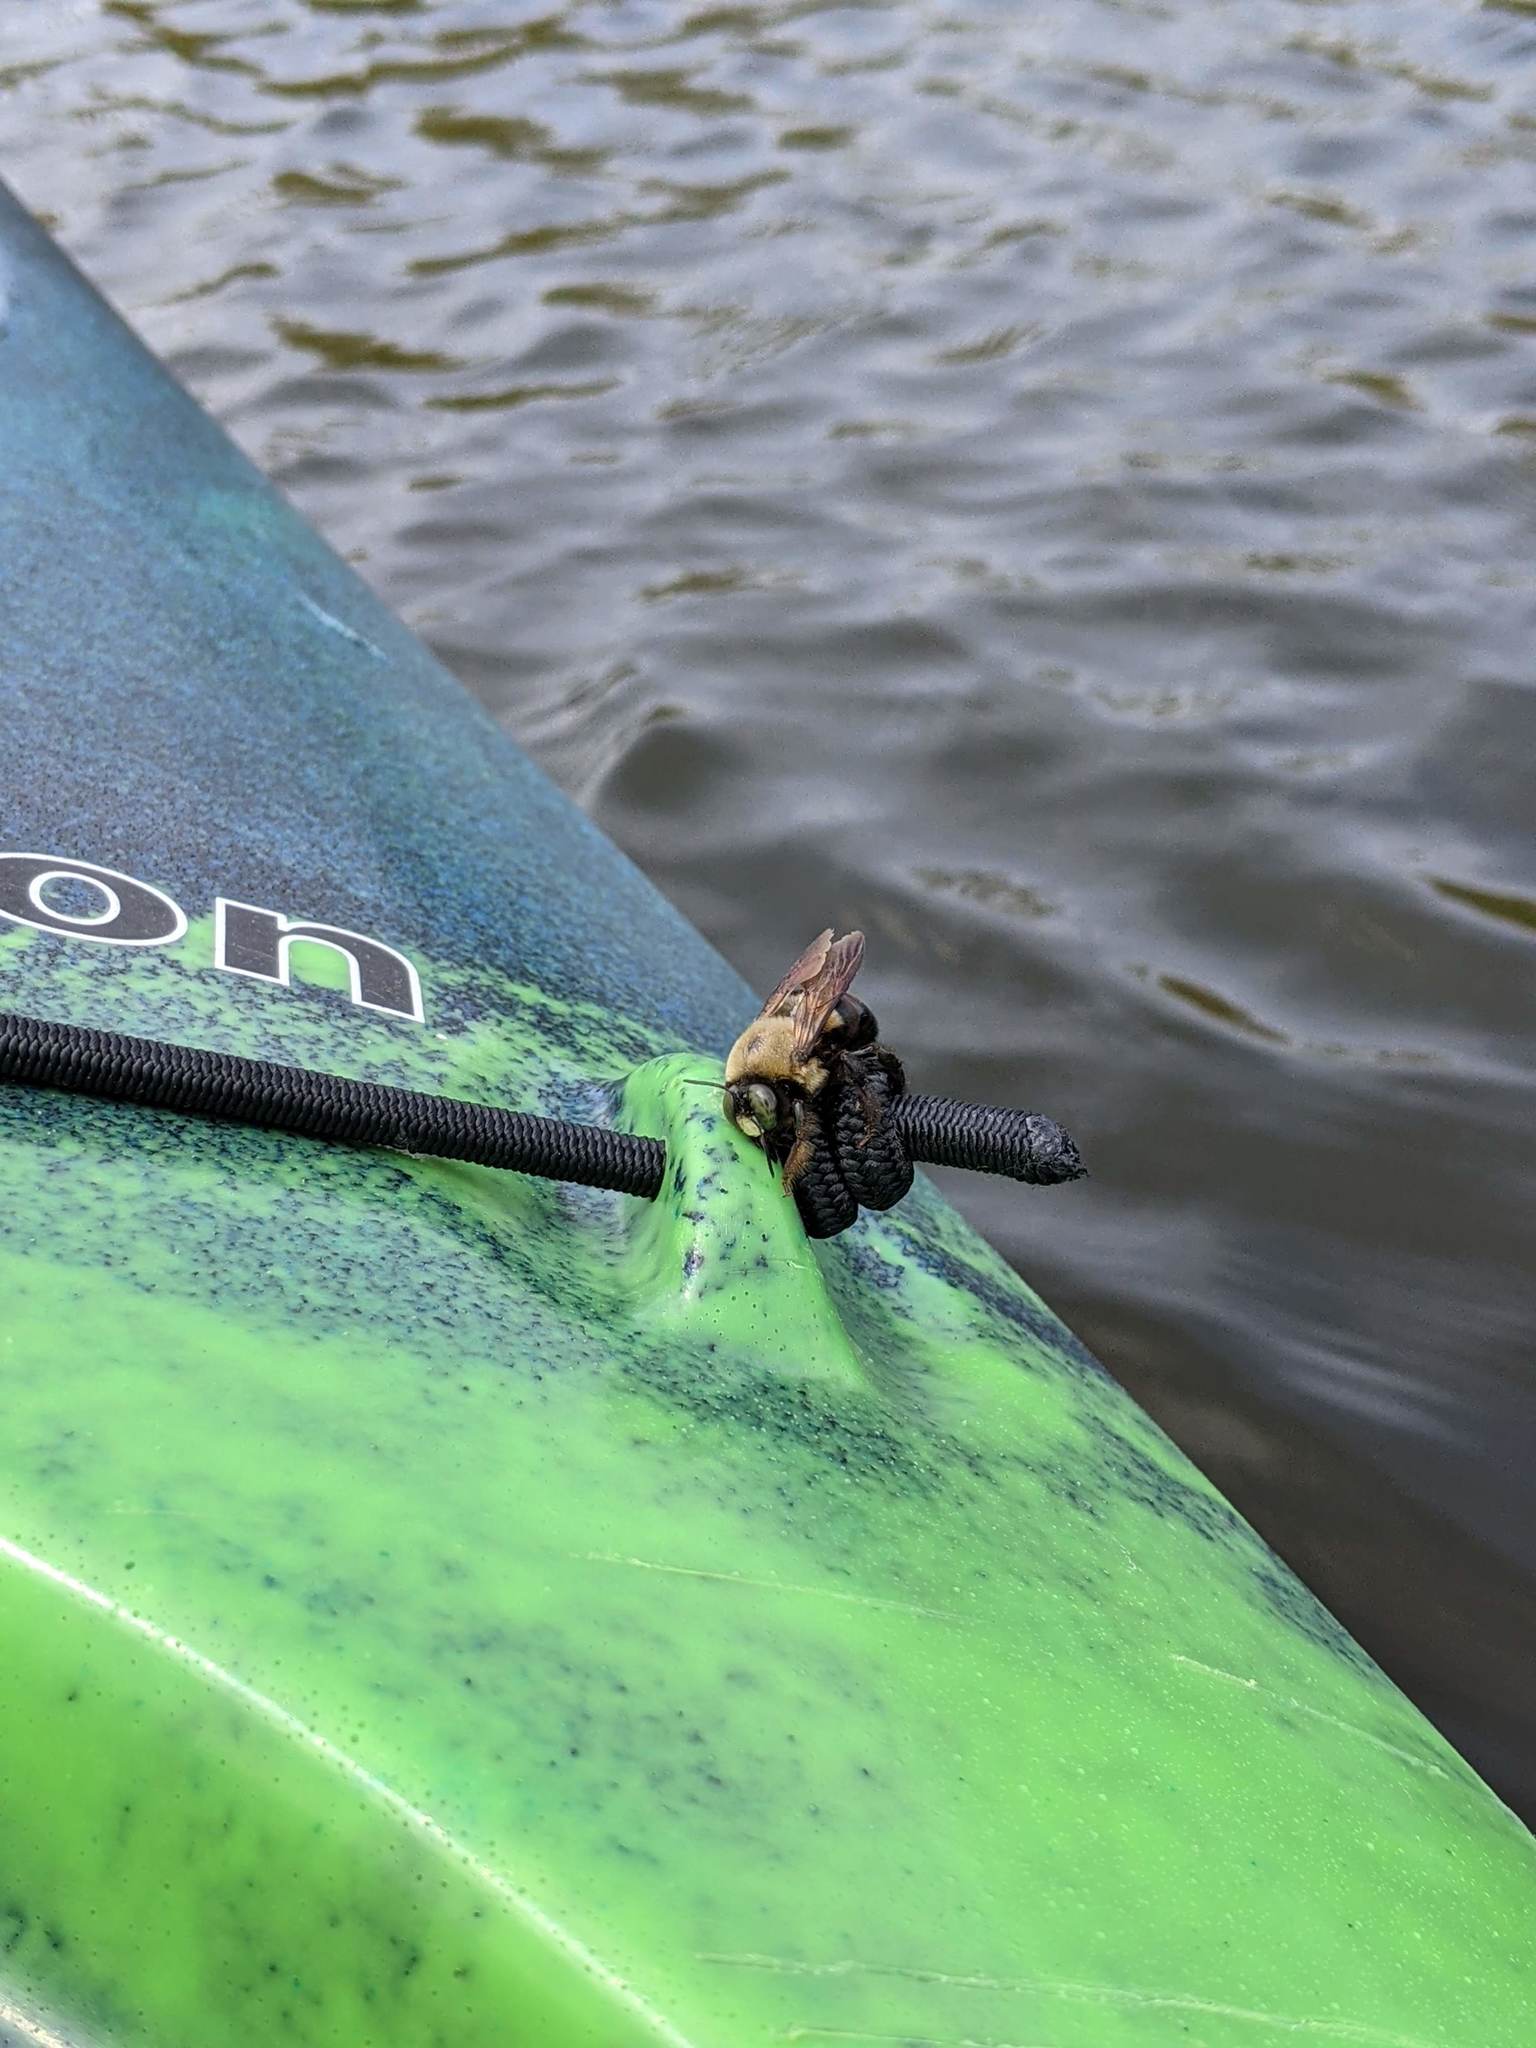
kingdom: Animalia
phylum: Arthropoda
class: Insecta
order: Hymenoptera
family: Apidae
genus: Xylocopa
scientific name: Xylocopa virginica
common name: Carpenter bee
